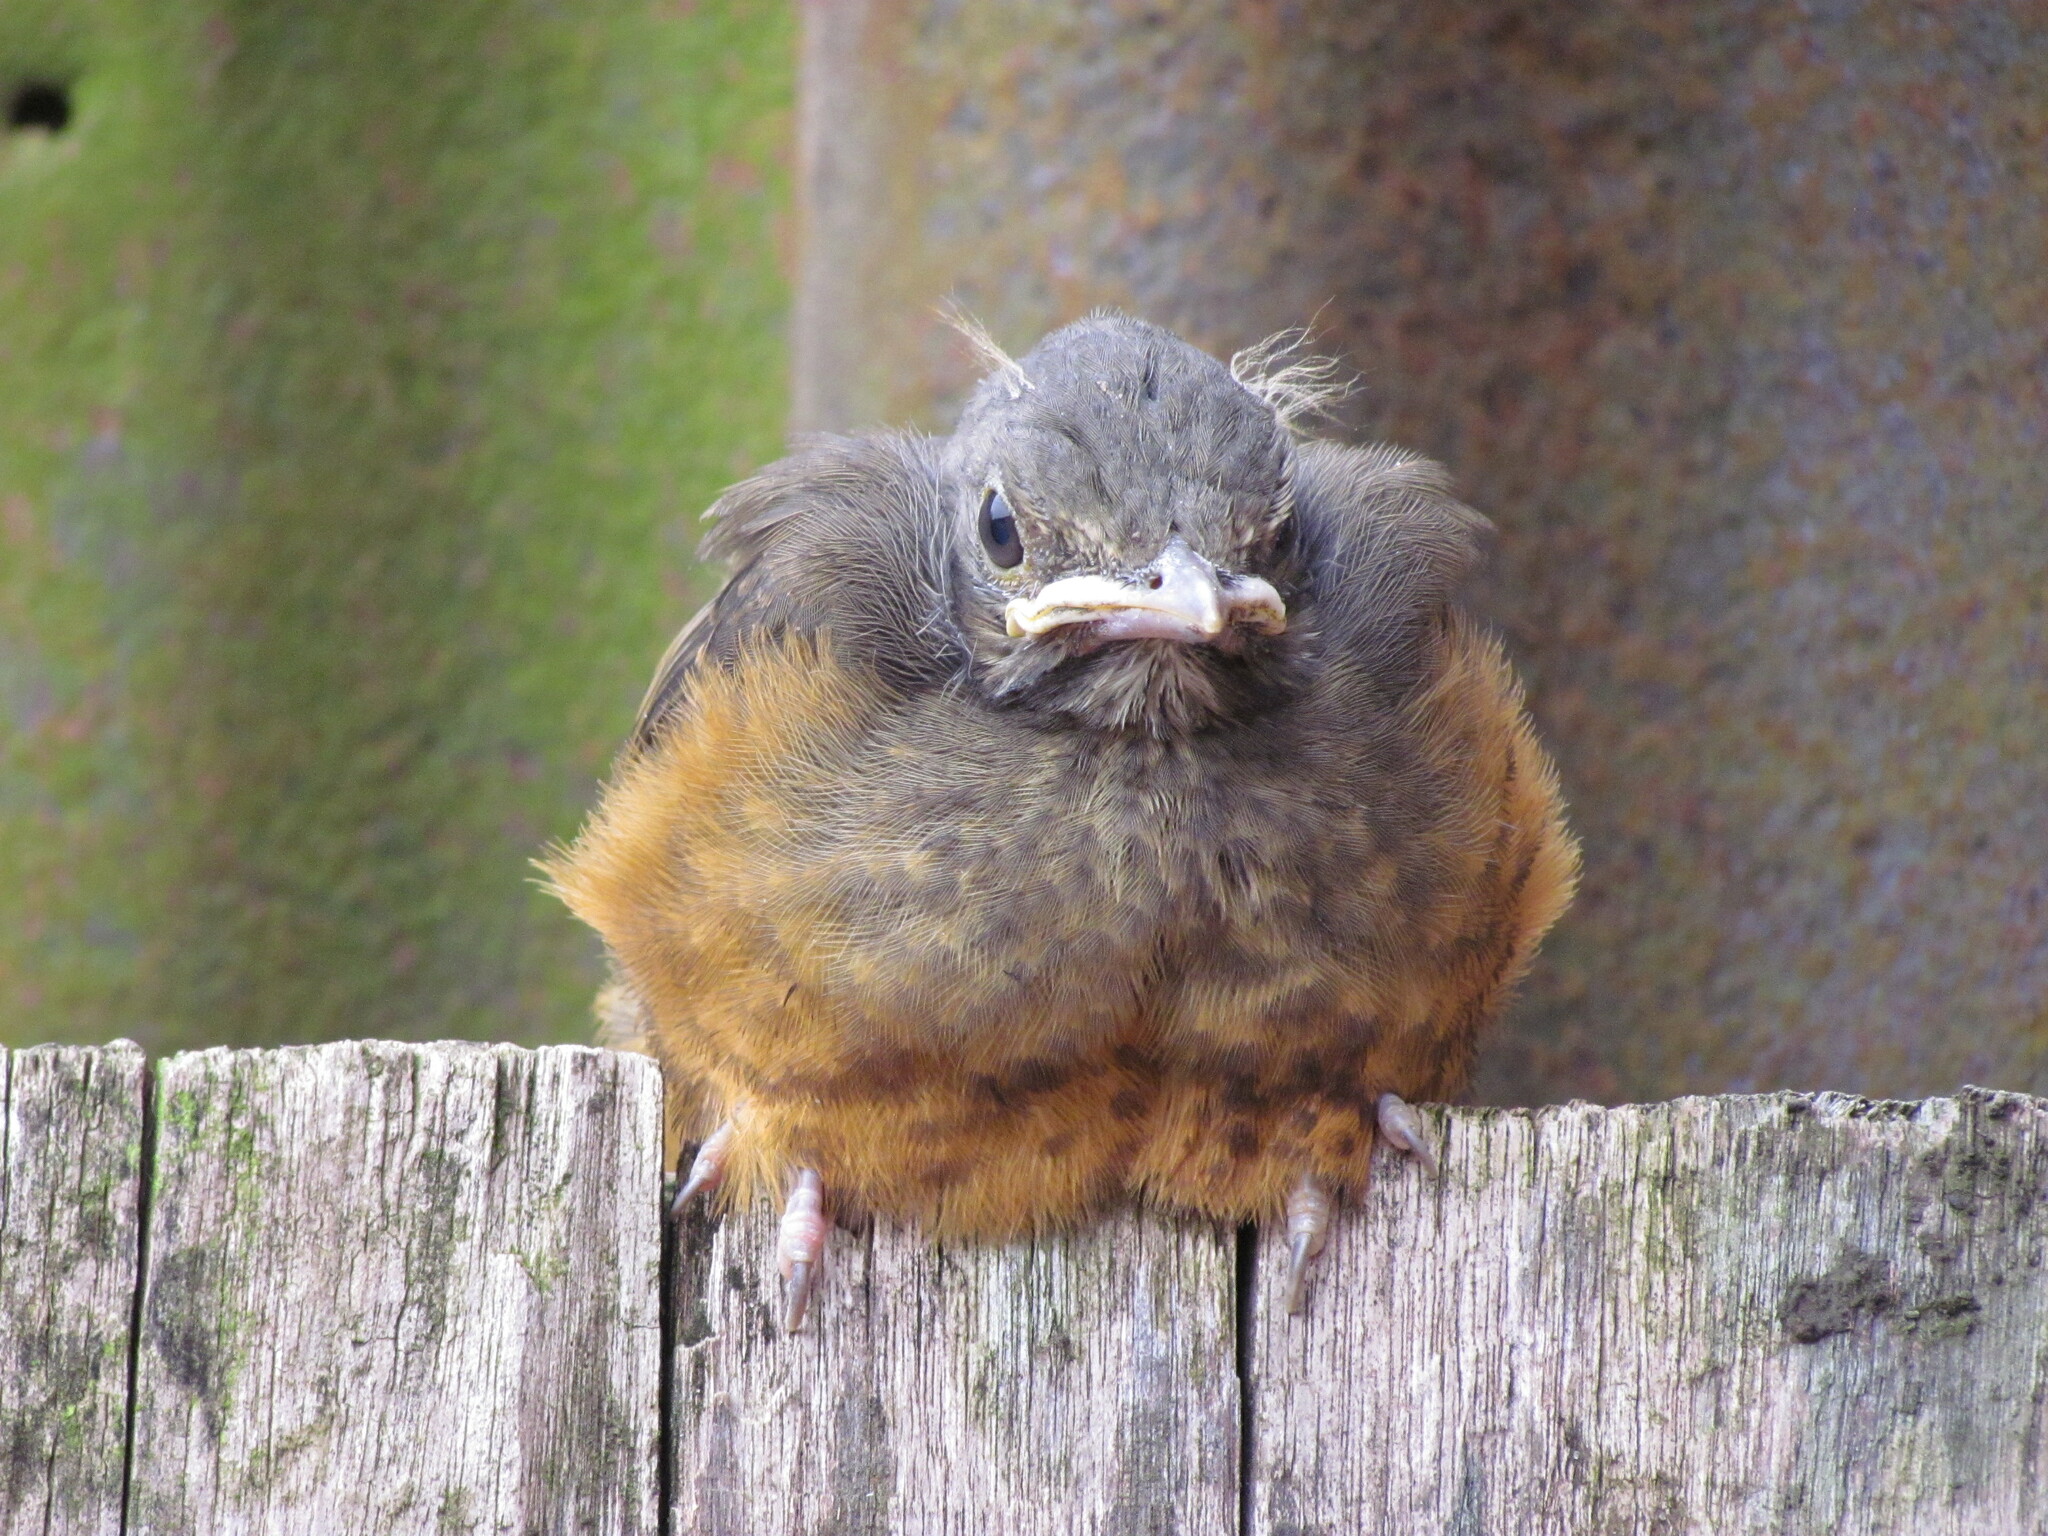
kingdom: Animalia
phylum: Chordata
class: Aves
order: Passeriformes
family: Turdidae
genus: Turdus
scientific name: Turdus rufiventris
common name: Rufous-bellied thrush
